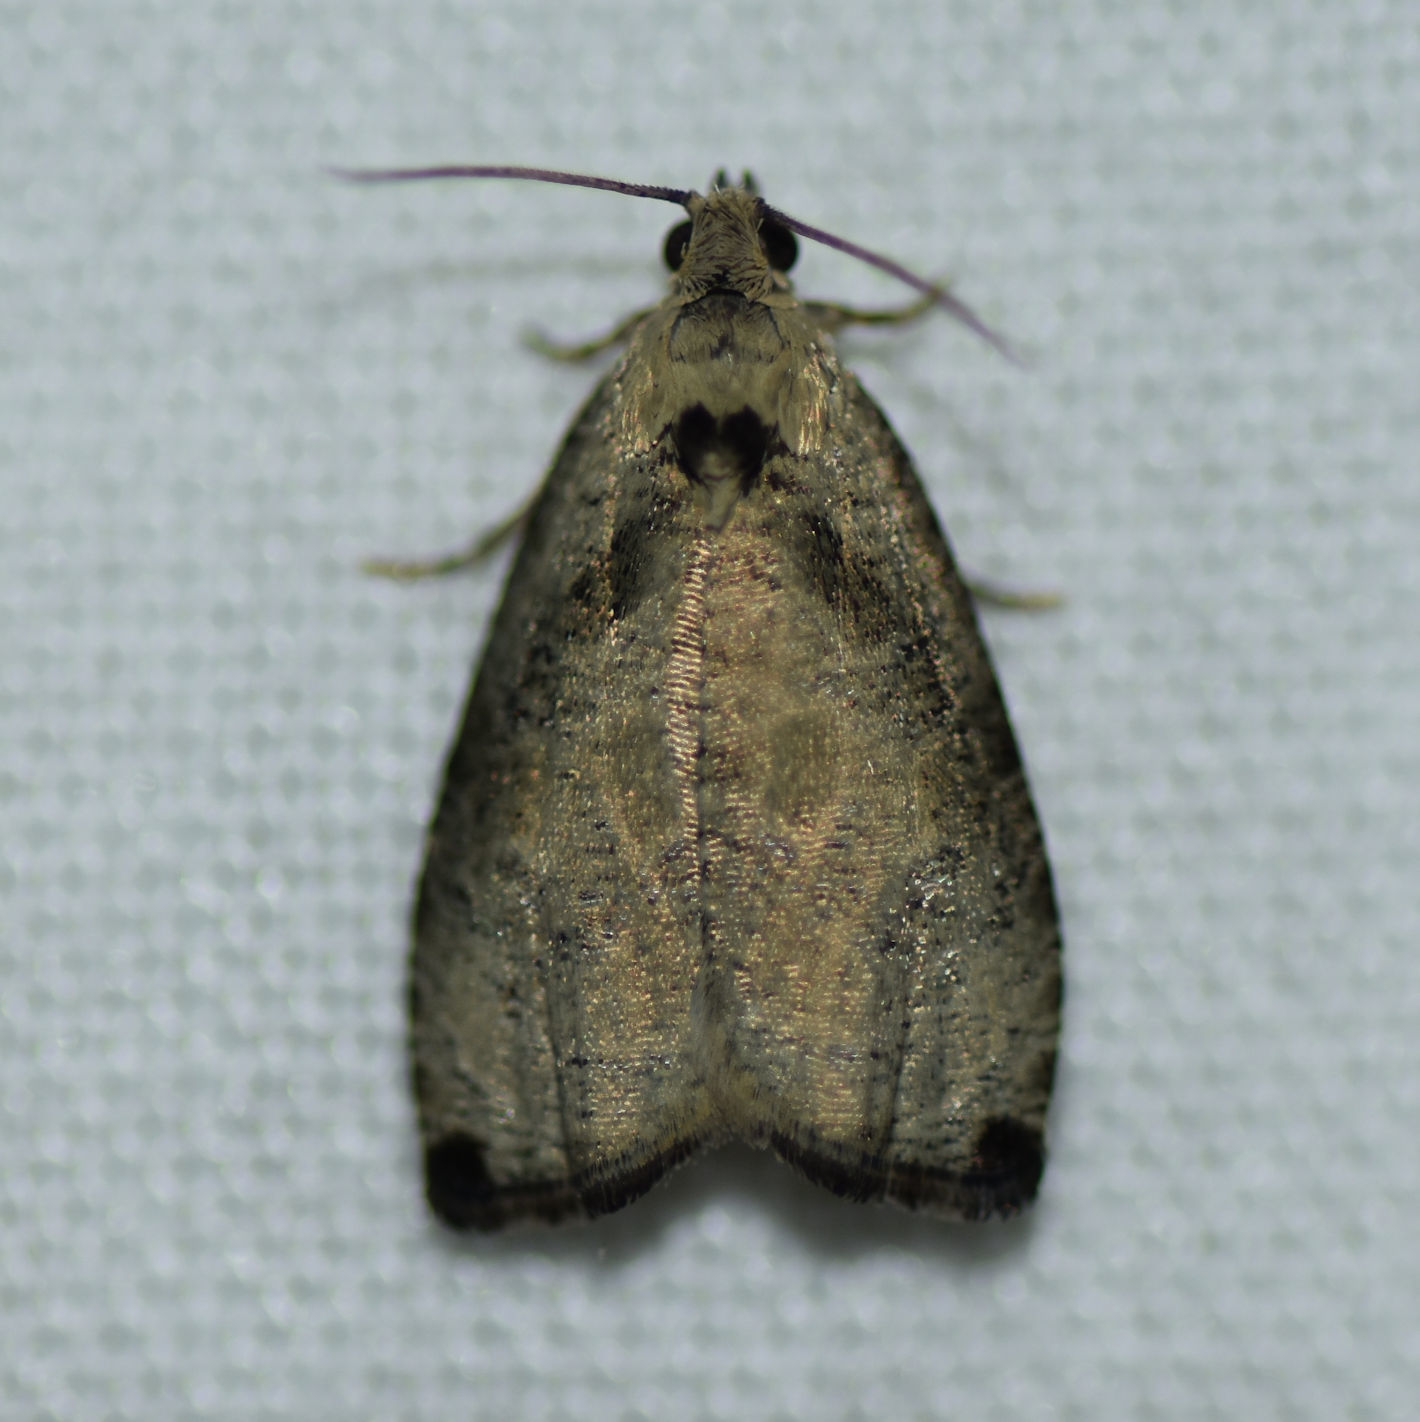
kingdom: Animalia
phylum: Arthropoda
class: Insecta
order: Lepidoptera
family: Tortricidae
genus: Olethreutes
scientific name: Olethreutes exoletum
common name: Wretched olethreutes moth
